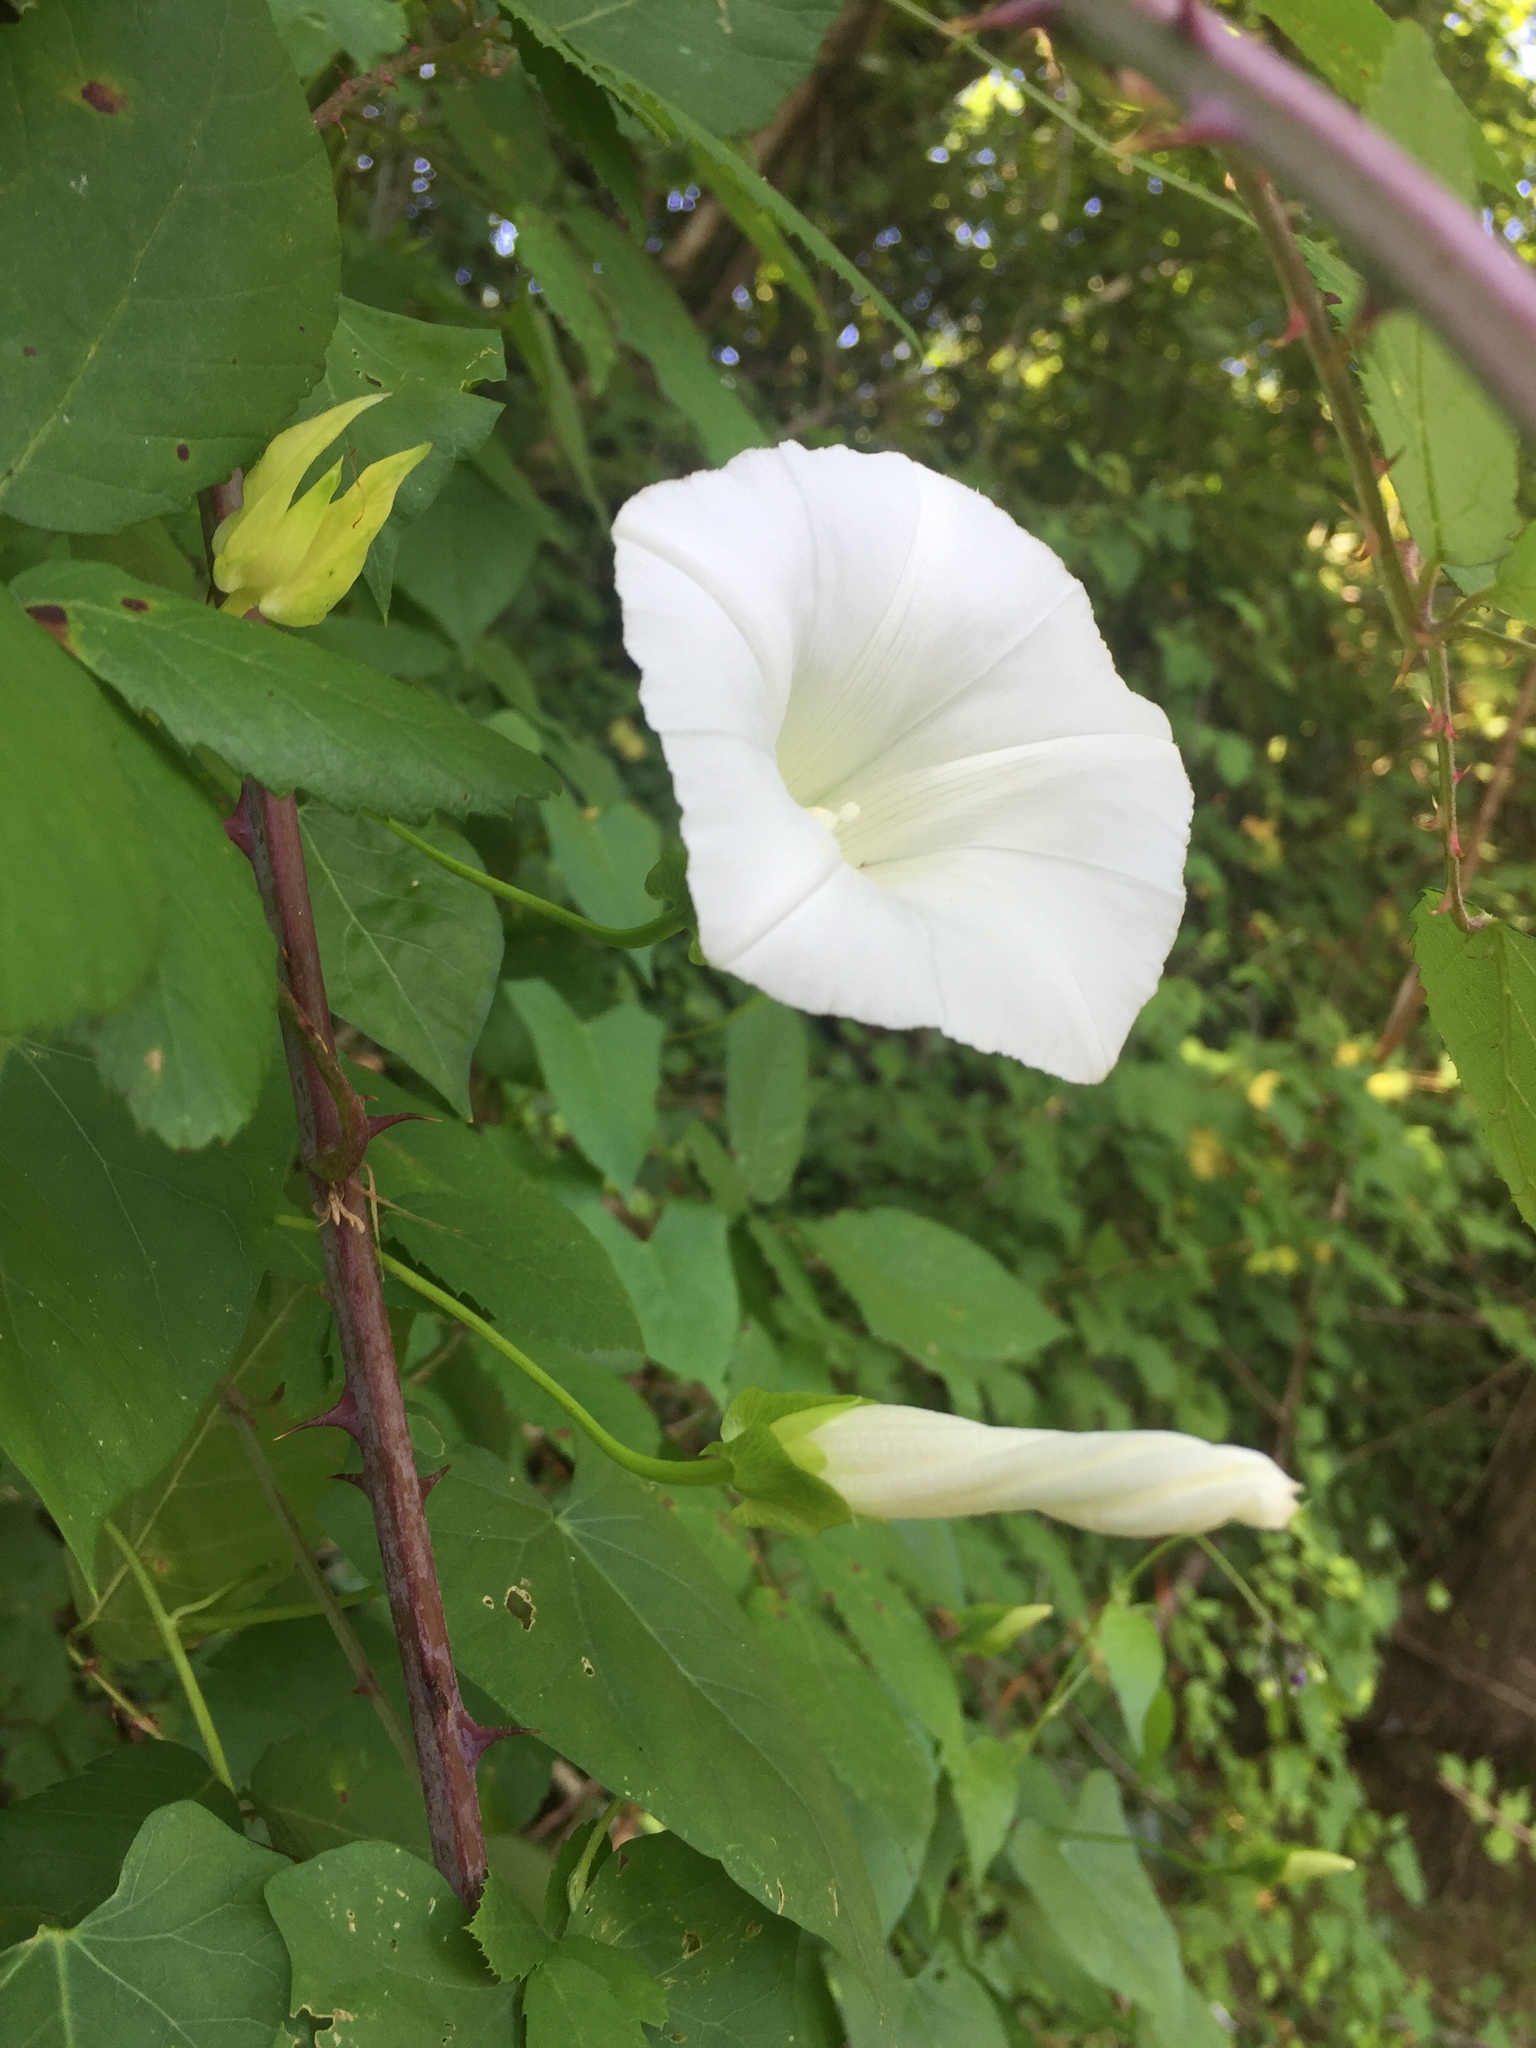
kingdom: Plantae
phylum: Tracheophyta
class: Magnoliopsida
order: Solanales
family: Convolvulaceae
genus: Calystegia
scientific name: Calystegia sepium
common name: Hedge bindweed
